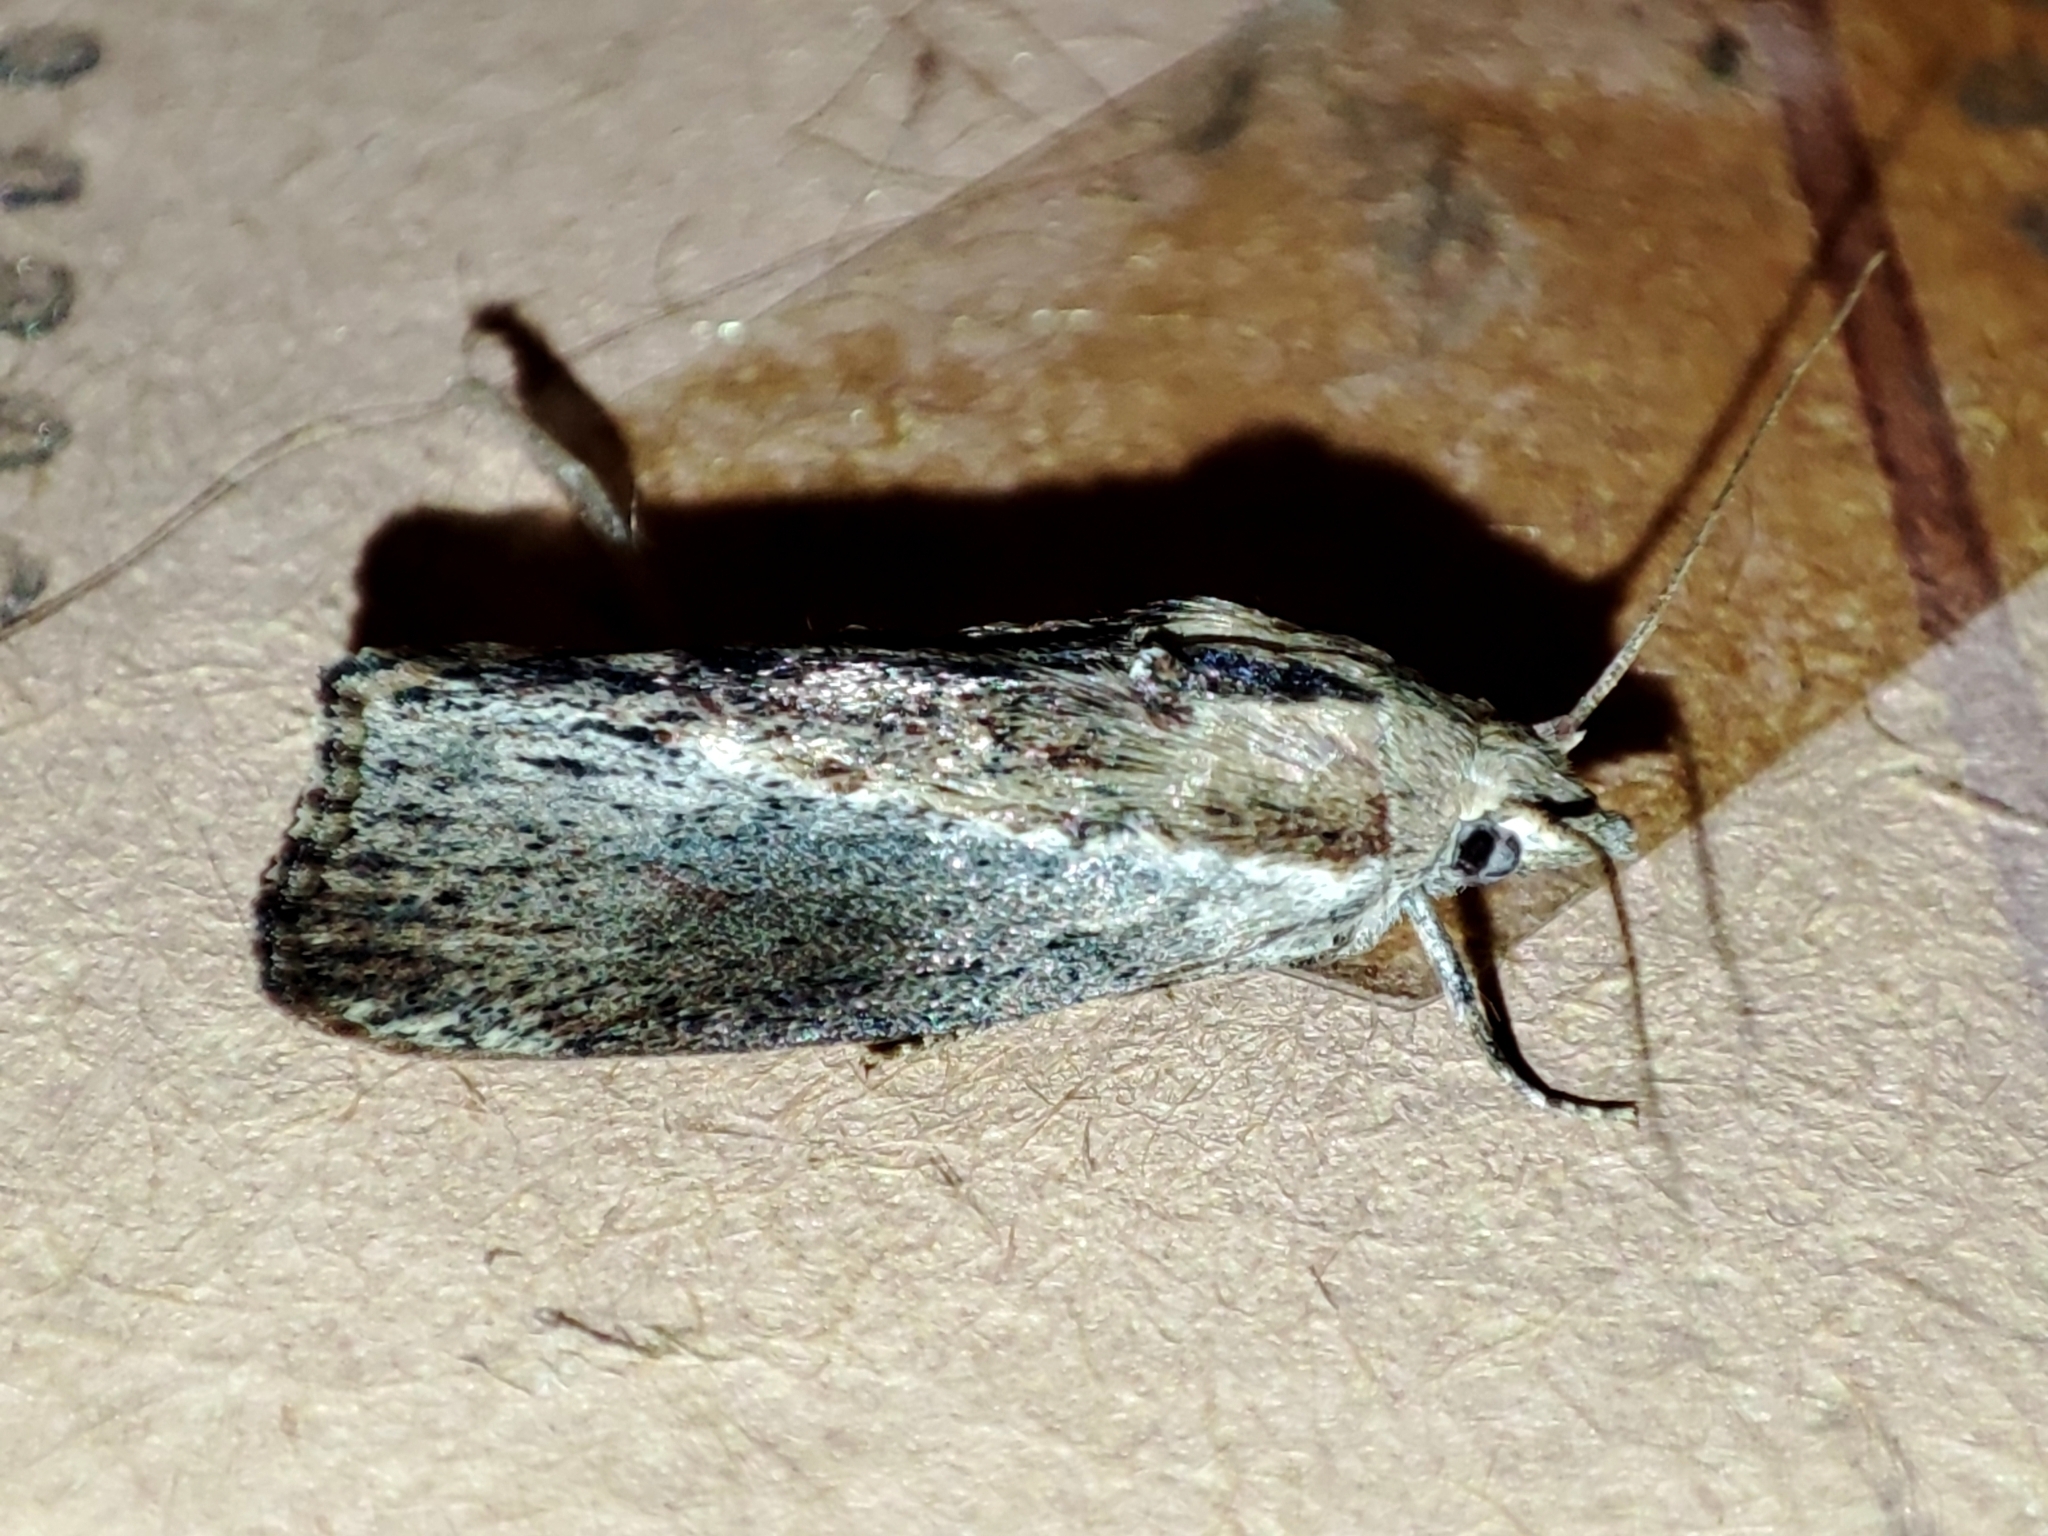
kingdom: Animalia
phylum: Arthropoda
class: Insecta
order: Lepidoptera
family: Pyralidae
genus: Galleria
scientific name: Galleria mellonella
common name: Greater wax moth
